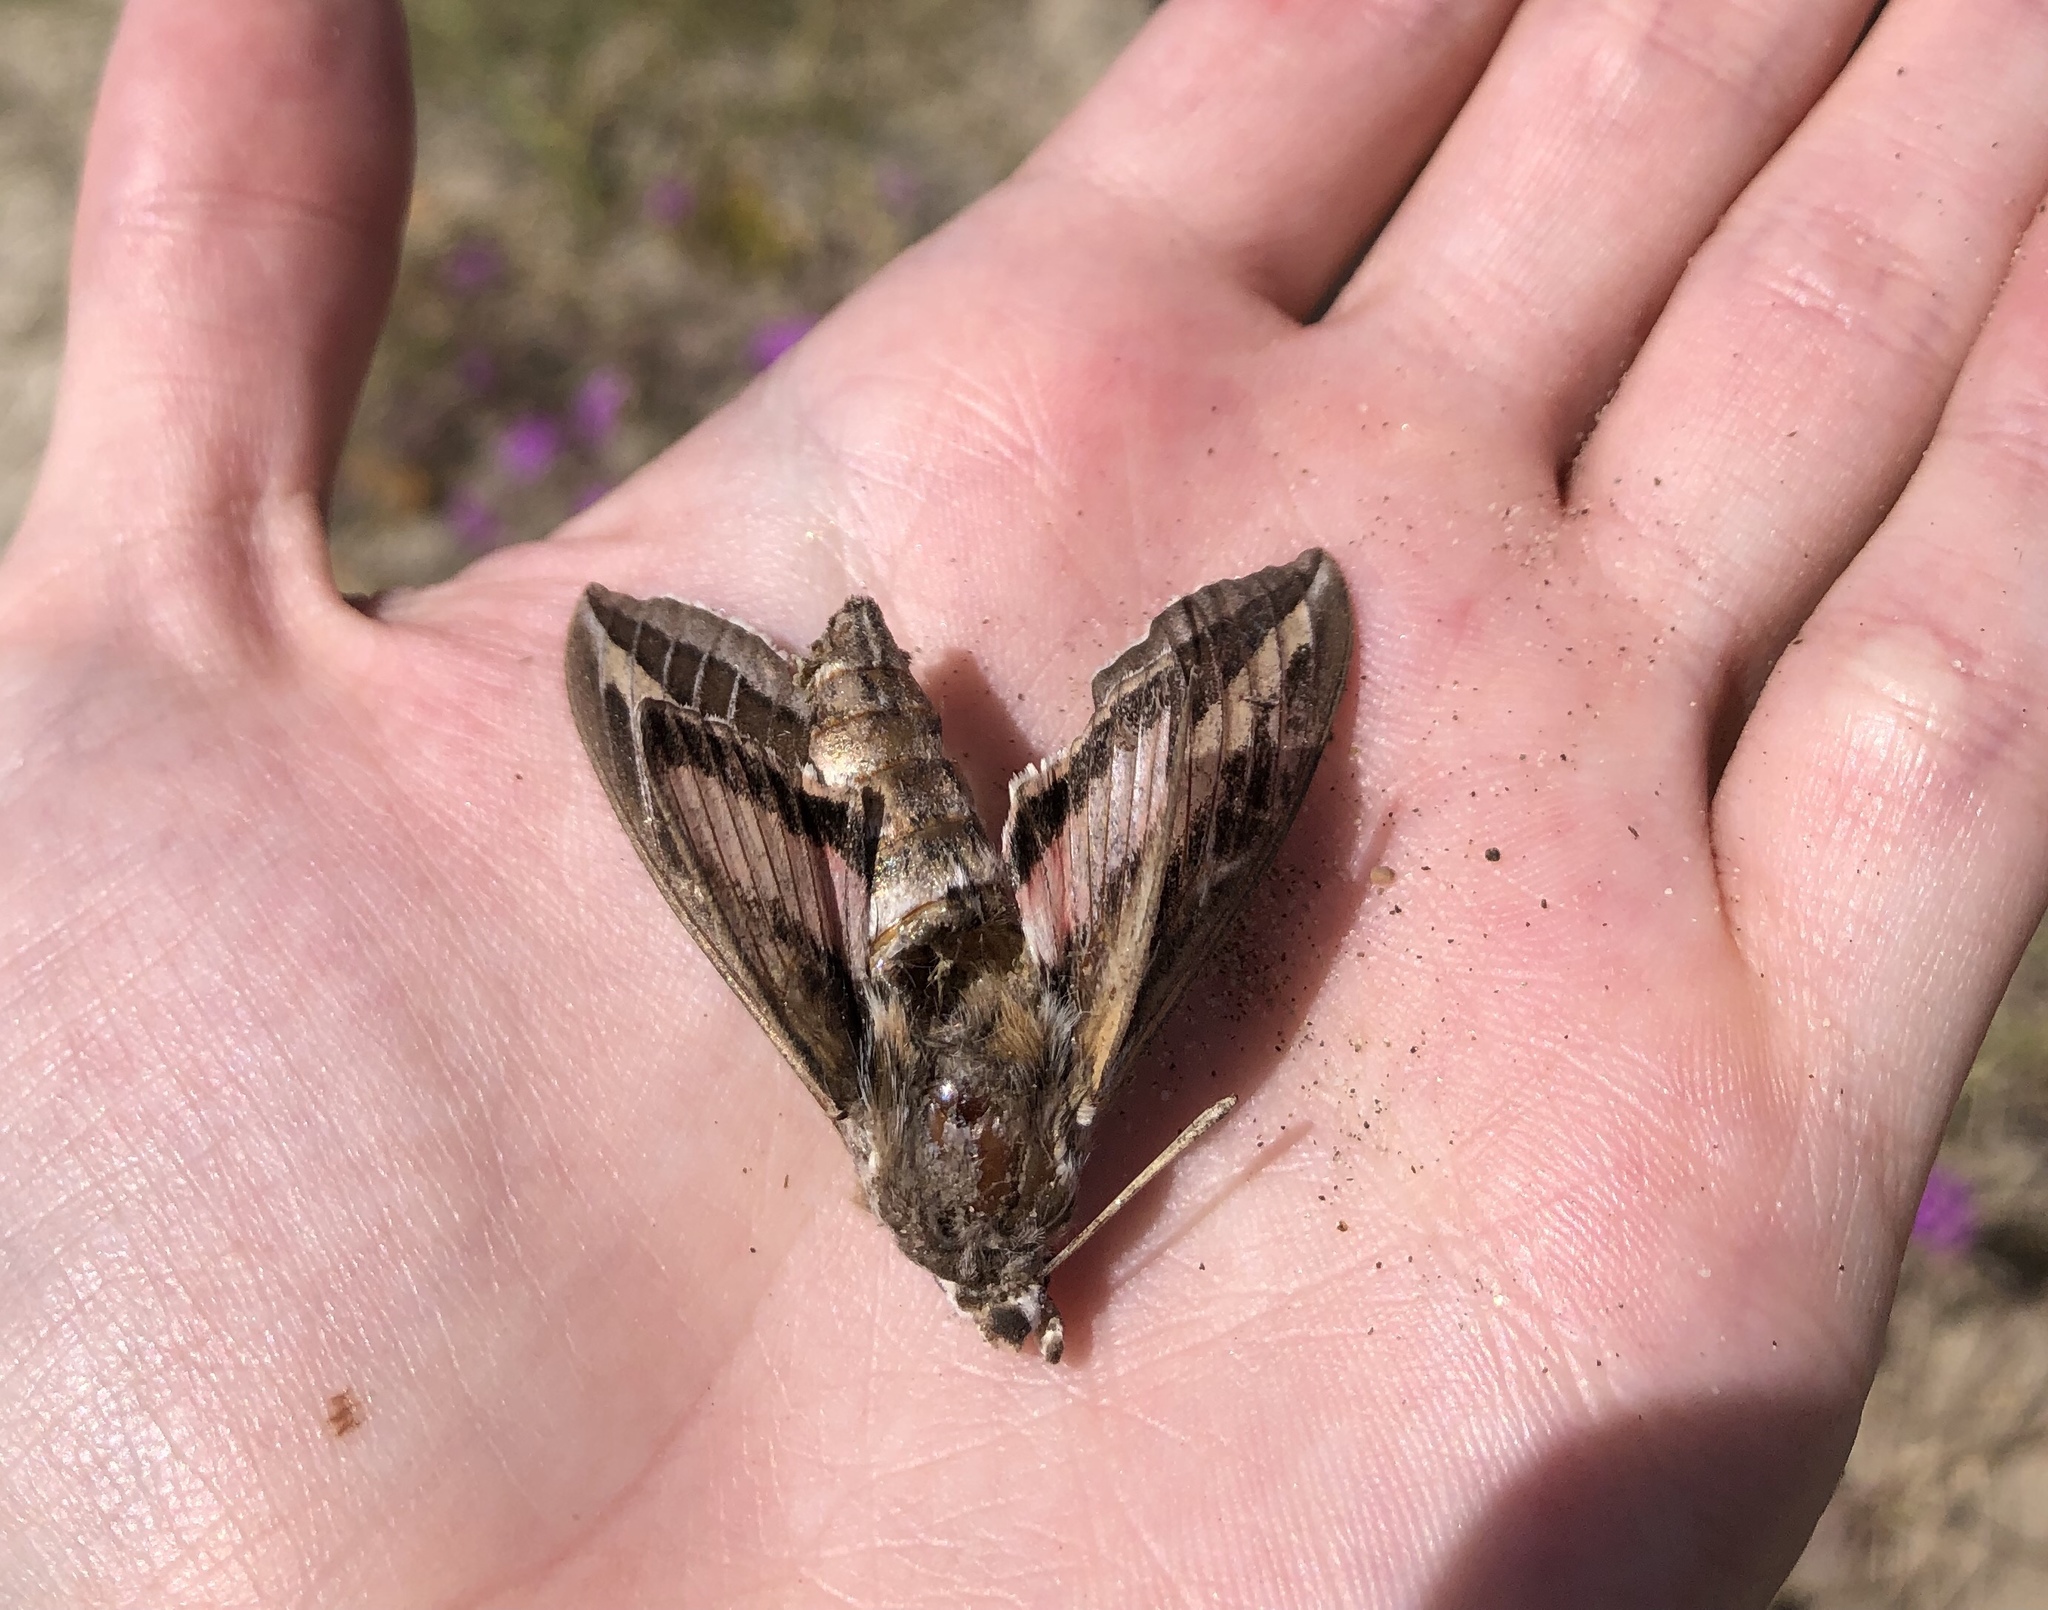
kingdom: Animalia
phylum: Arthropoda
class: Insecta
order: Lepidoptera
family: Sphingidae
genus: Hyles
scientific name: Hyles lineata
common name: White-lined sphinx
